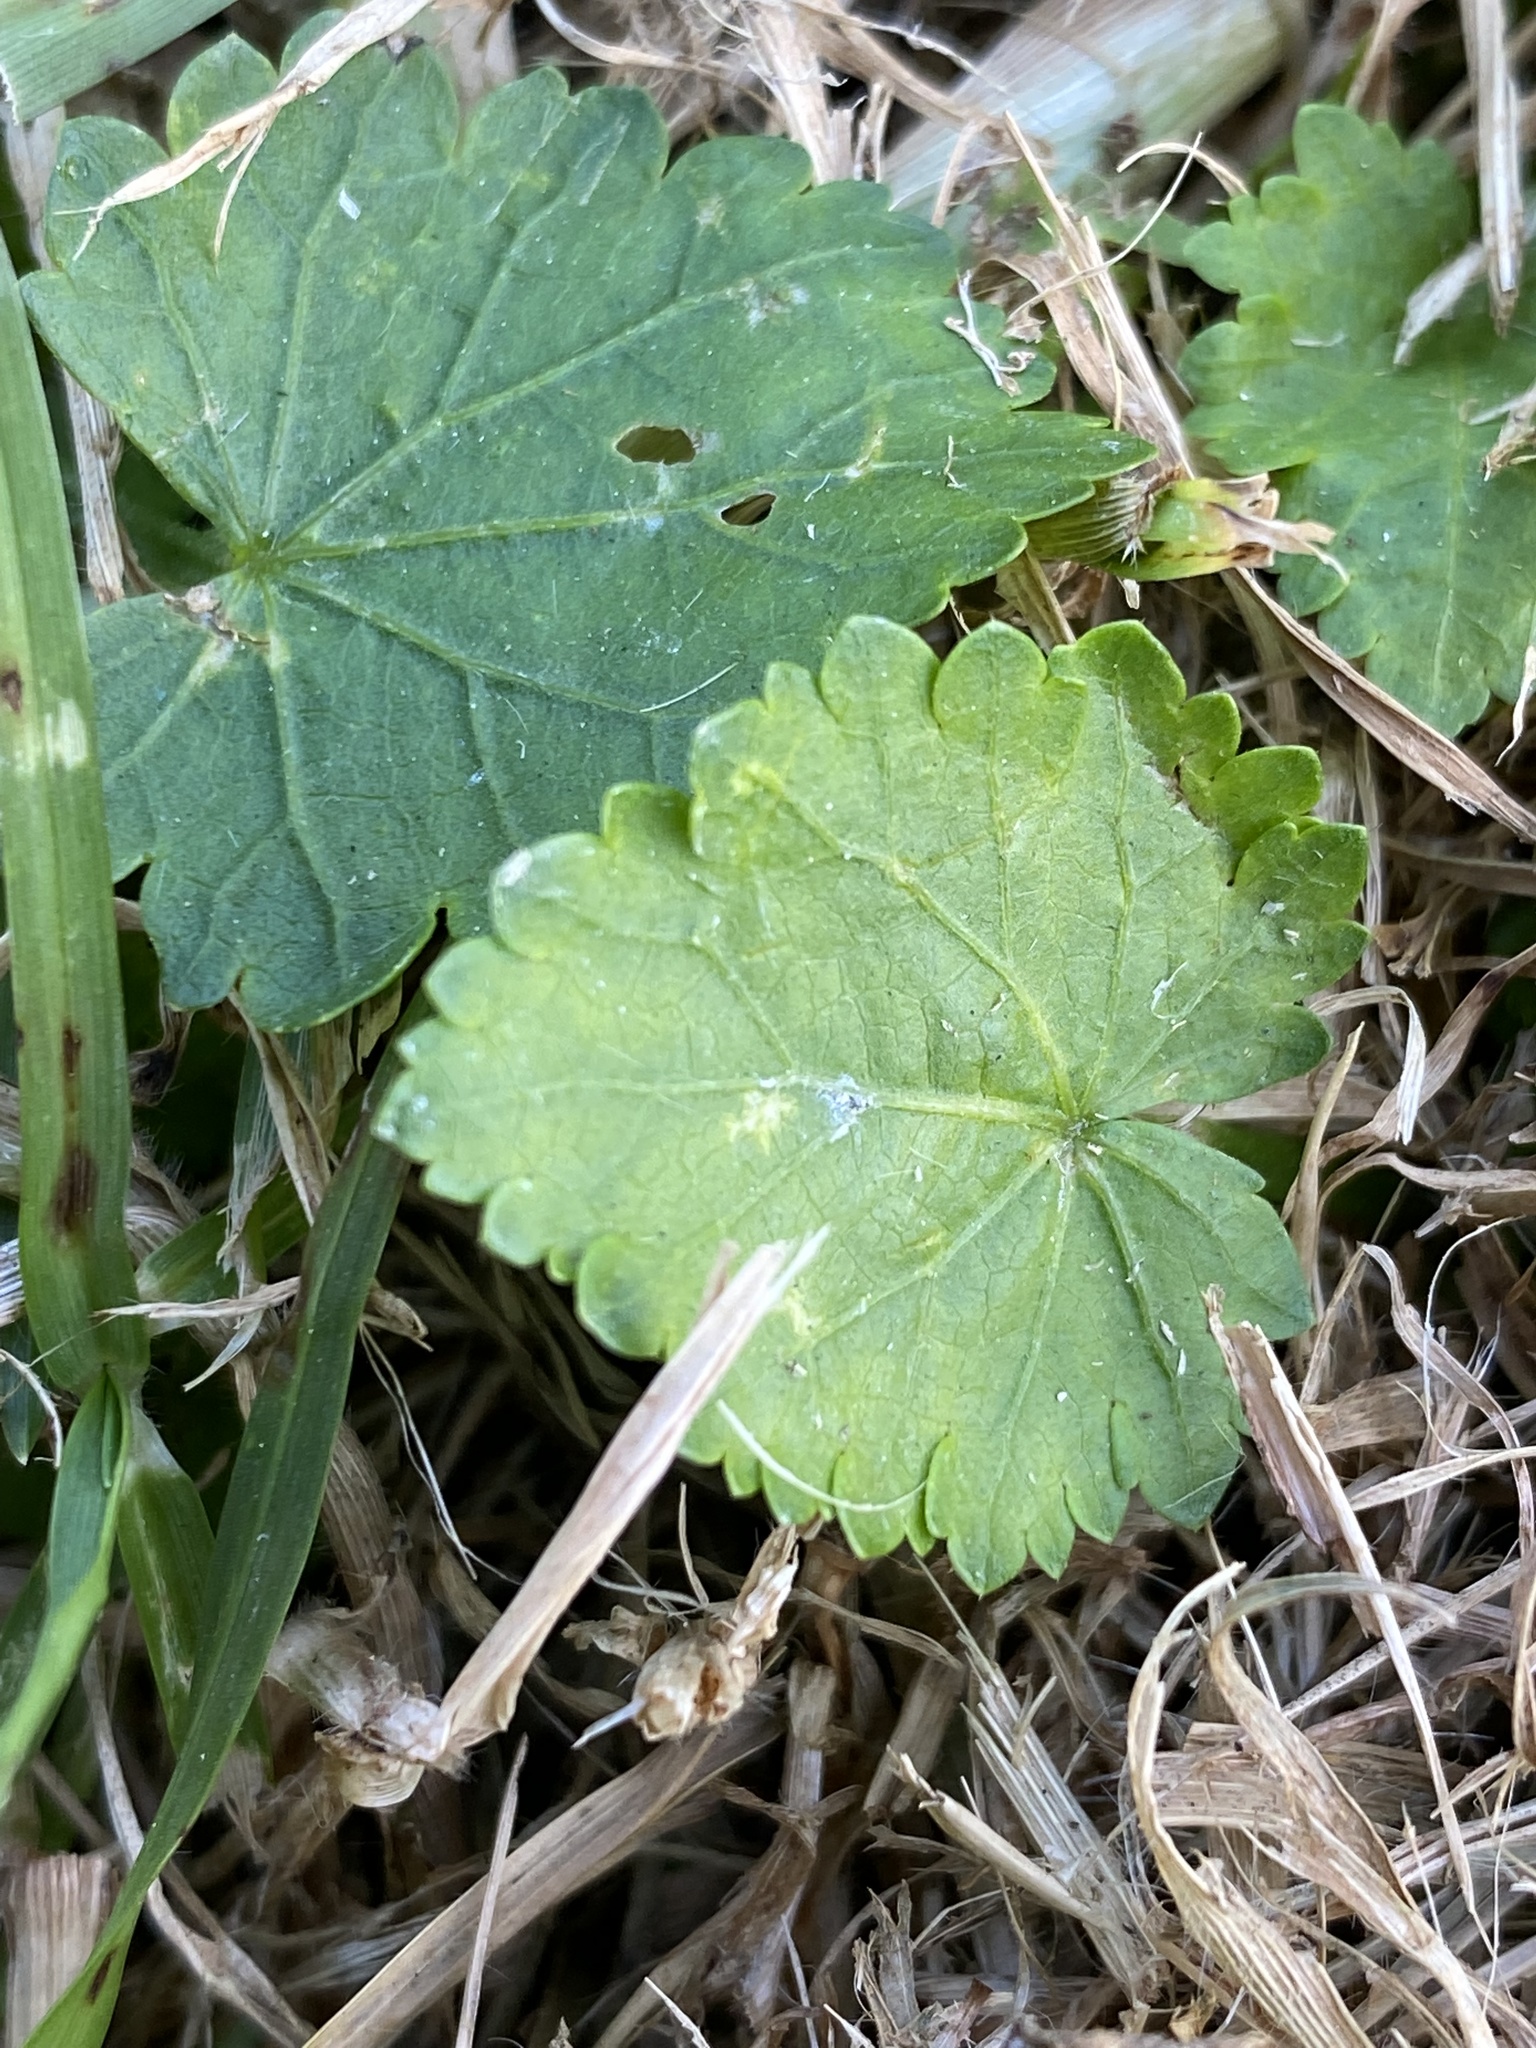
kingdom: Plantae
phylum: Tracheophyta
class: Magnoliopsida
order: Malvales
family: Malvaceae
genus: Modiola
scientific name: Modiola caroliniana
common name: Carolina bristlemallow
